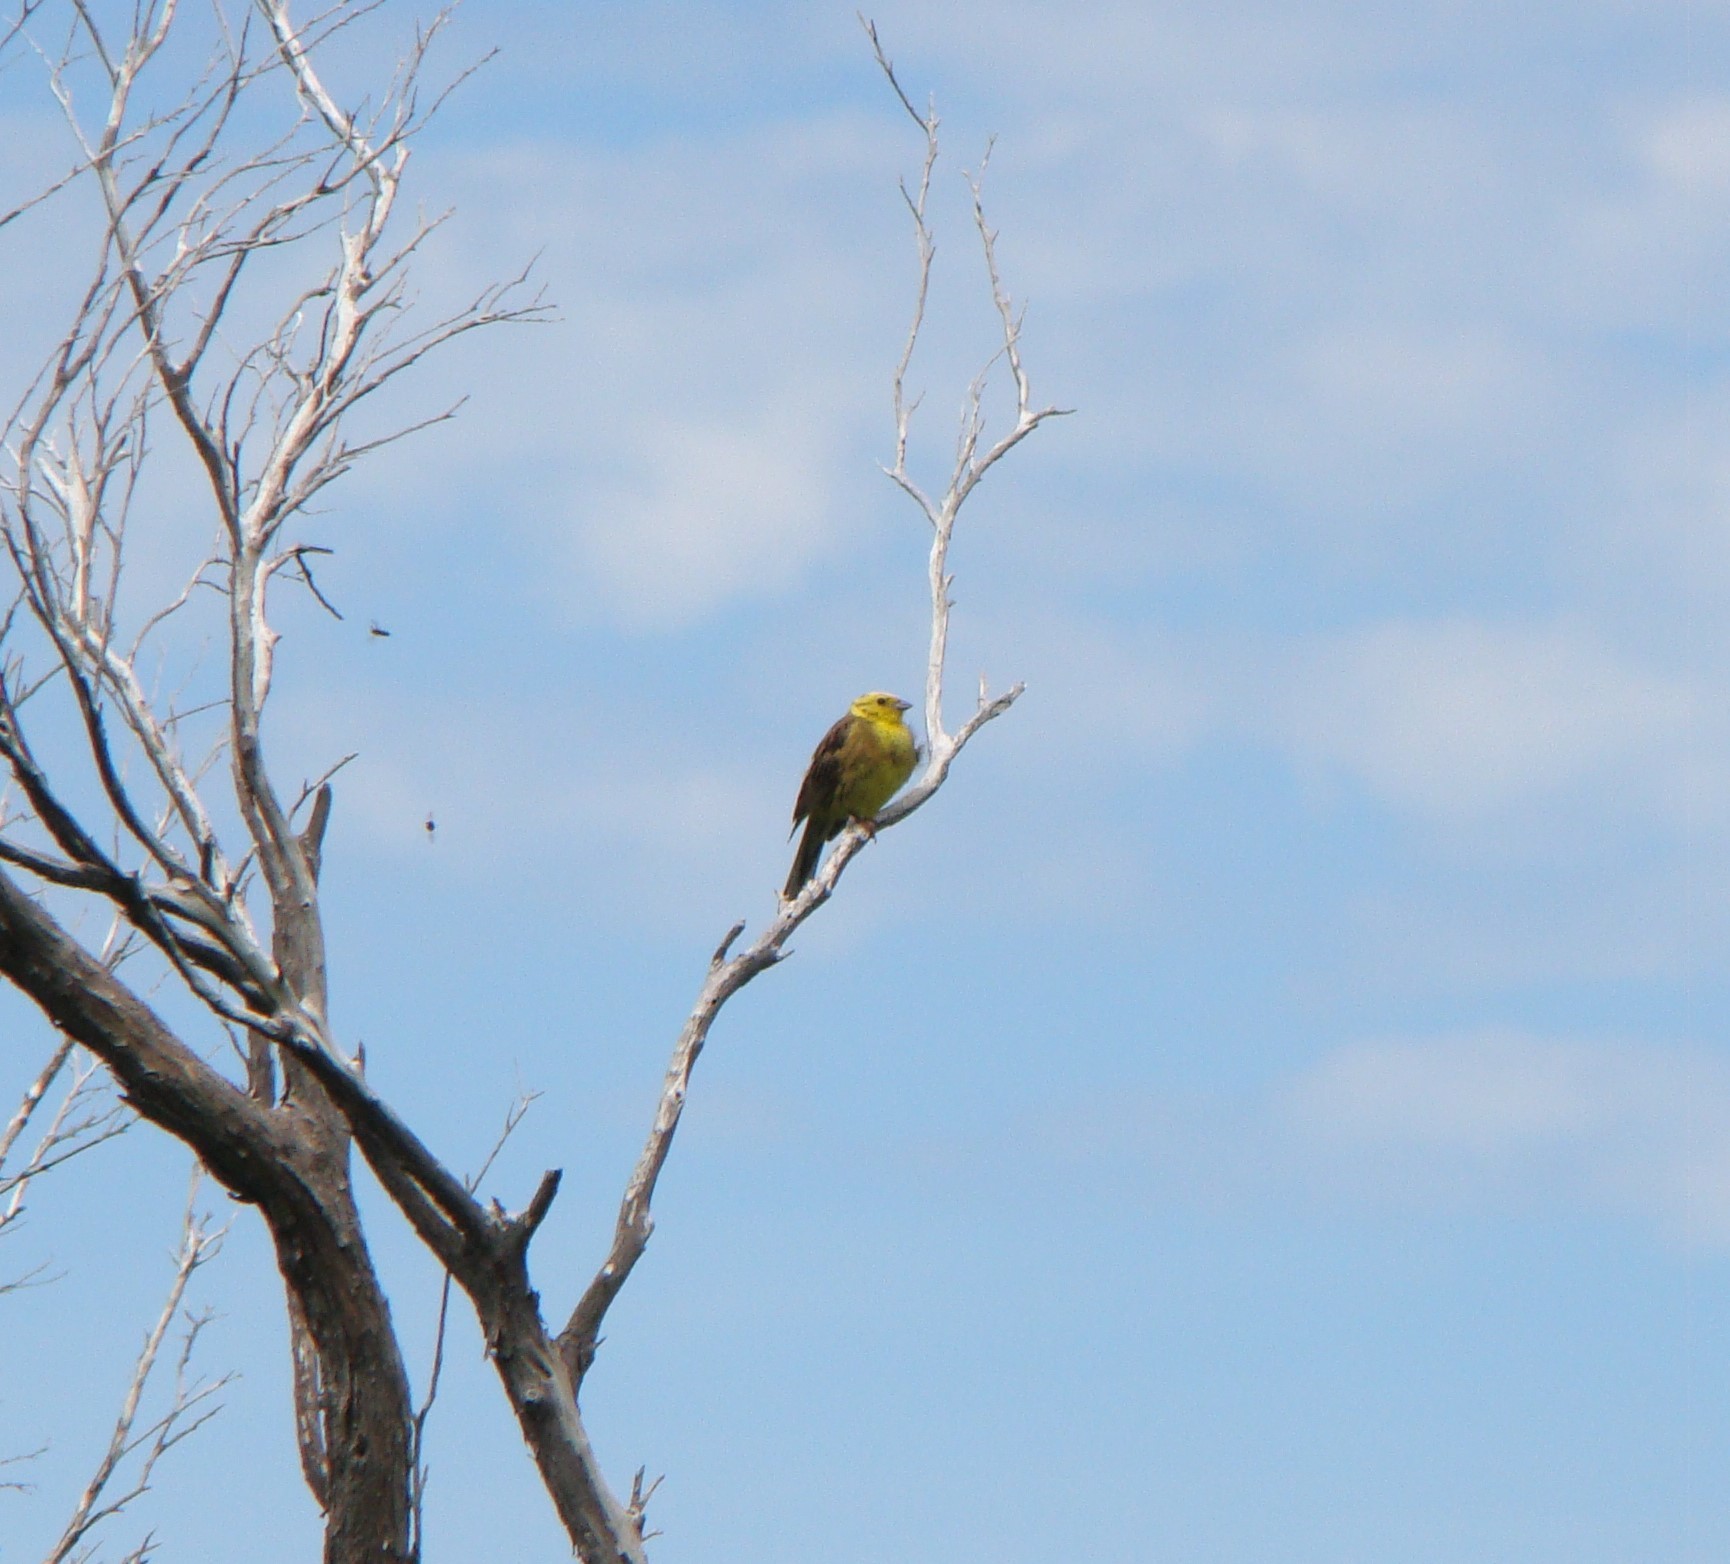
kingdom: Animalia
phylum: Chordata
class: Aves
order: Passeriformes
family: Emberizidae
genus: Emberiza
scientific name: Emberiza citrinella
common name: Yellowhammer
